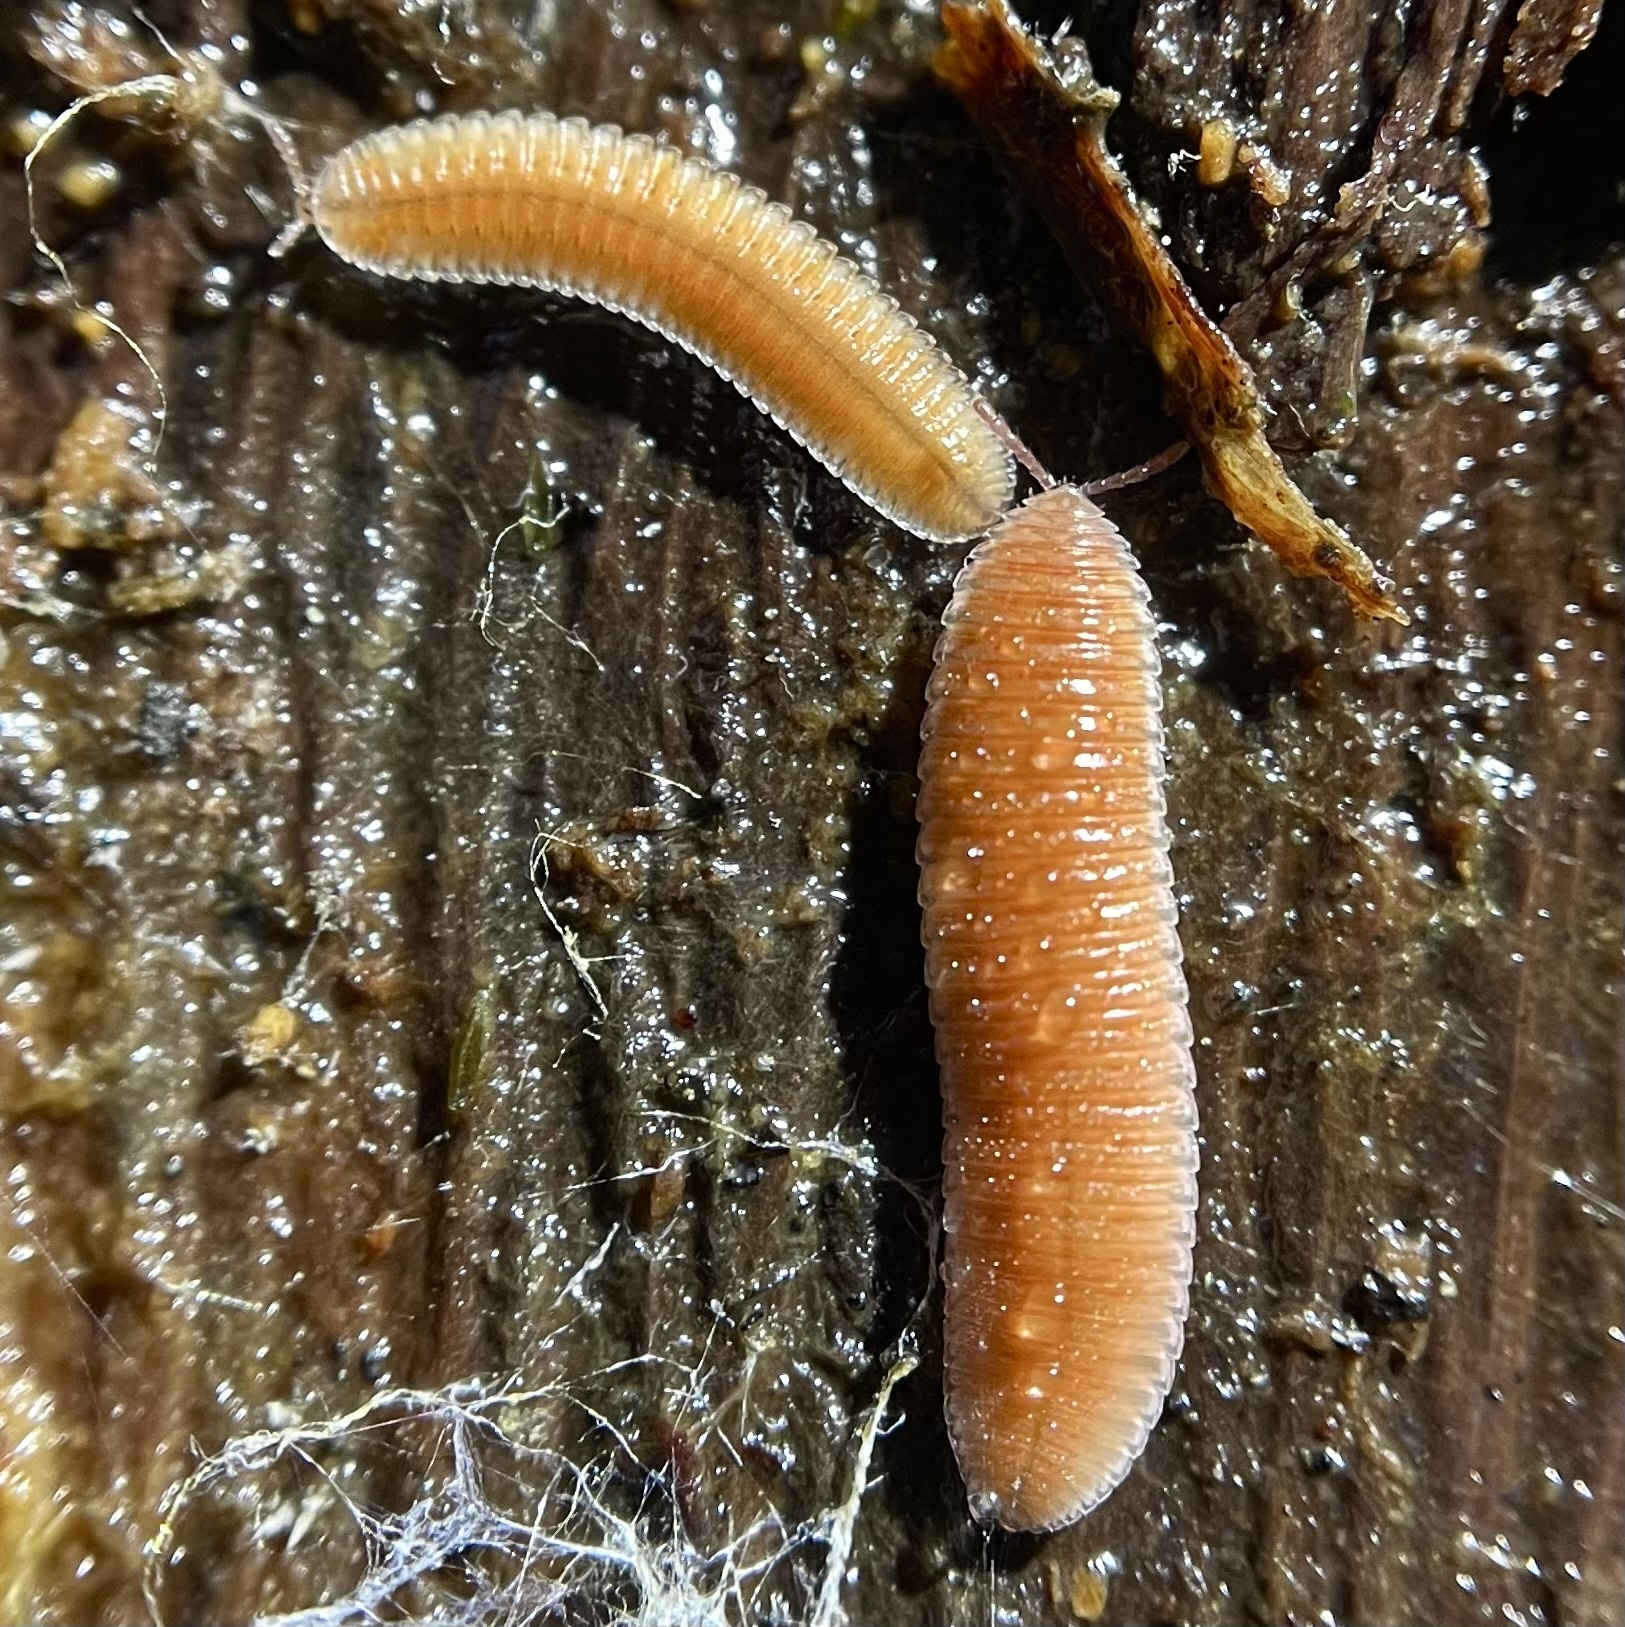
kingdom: Animalia
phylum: Arthropoda
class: Diplopoda
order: Polyzoniida
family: Hirudisomatidae
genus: Octoglena
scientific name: Octoglena sierra
